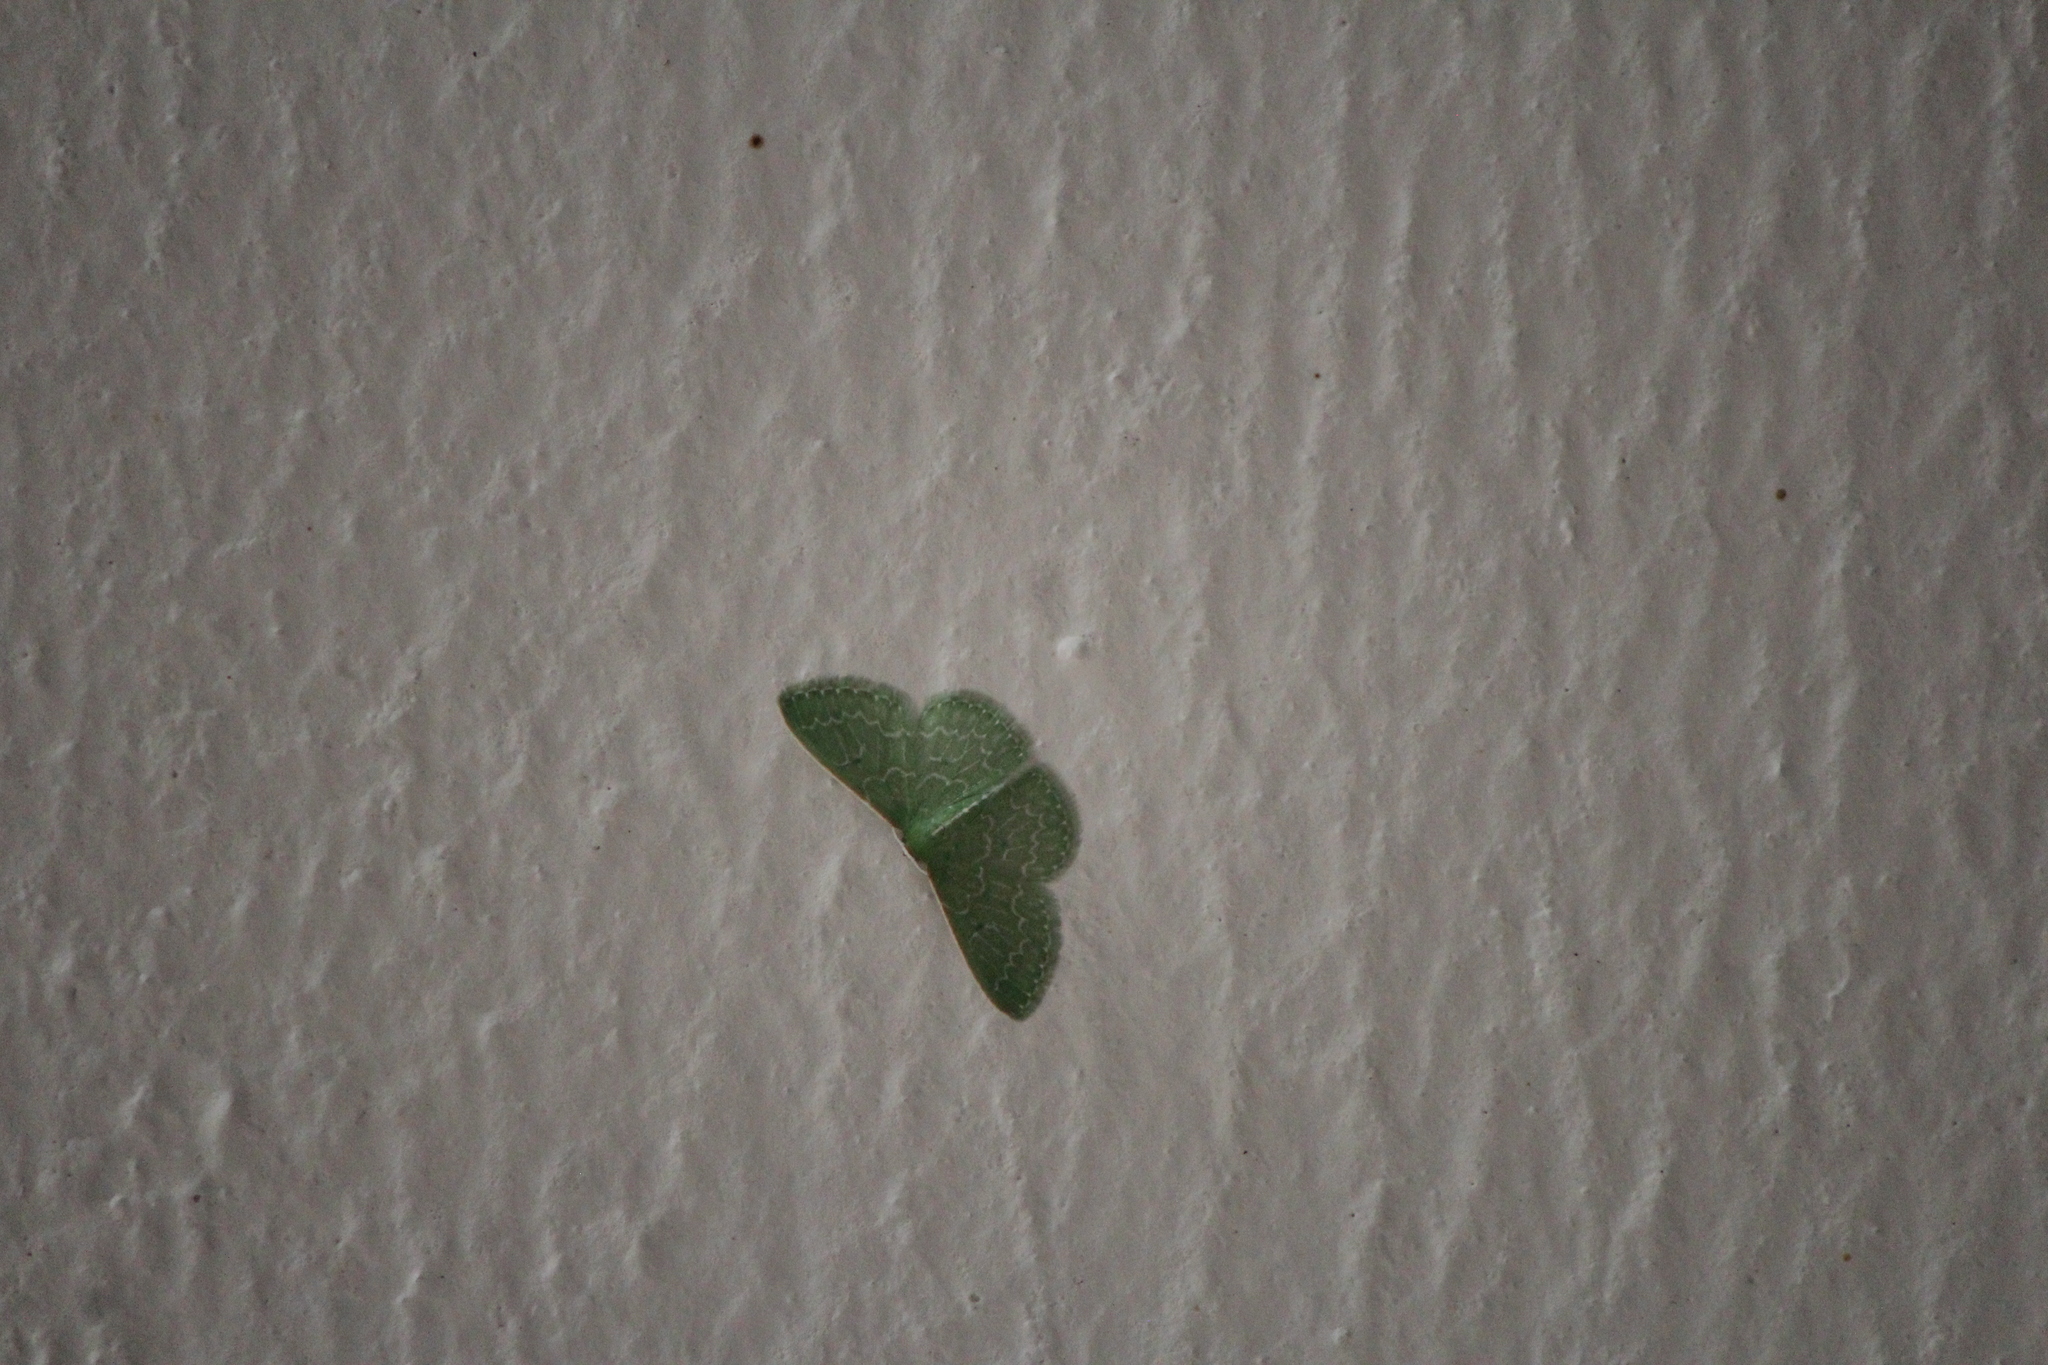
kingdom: Animalia
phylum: Arthropoda
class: Insecta
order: Lepidoptera
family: Geometridae
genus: Synchlora
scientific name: Synchlora frondaria
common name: Southern emerald
